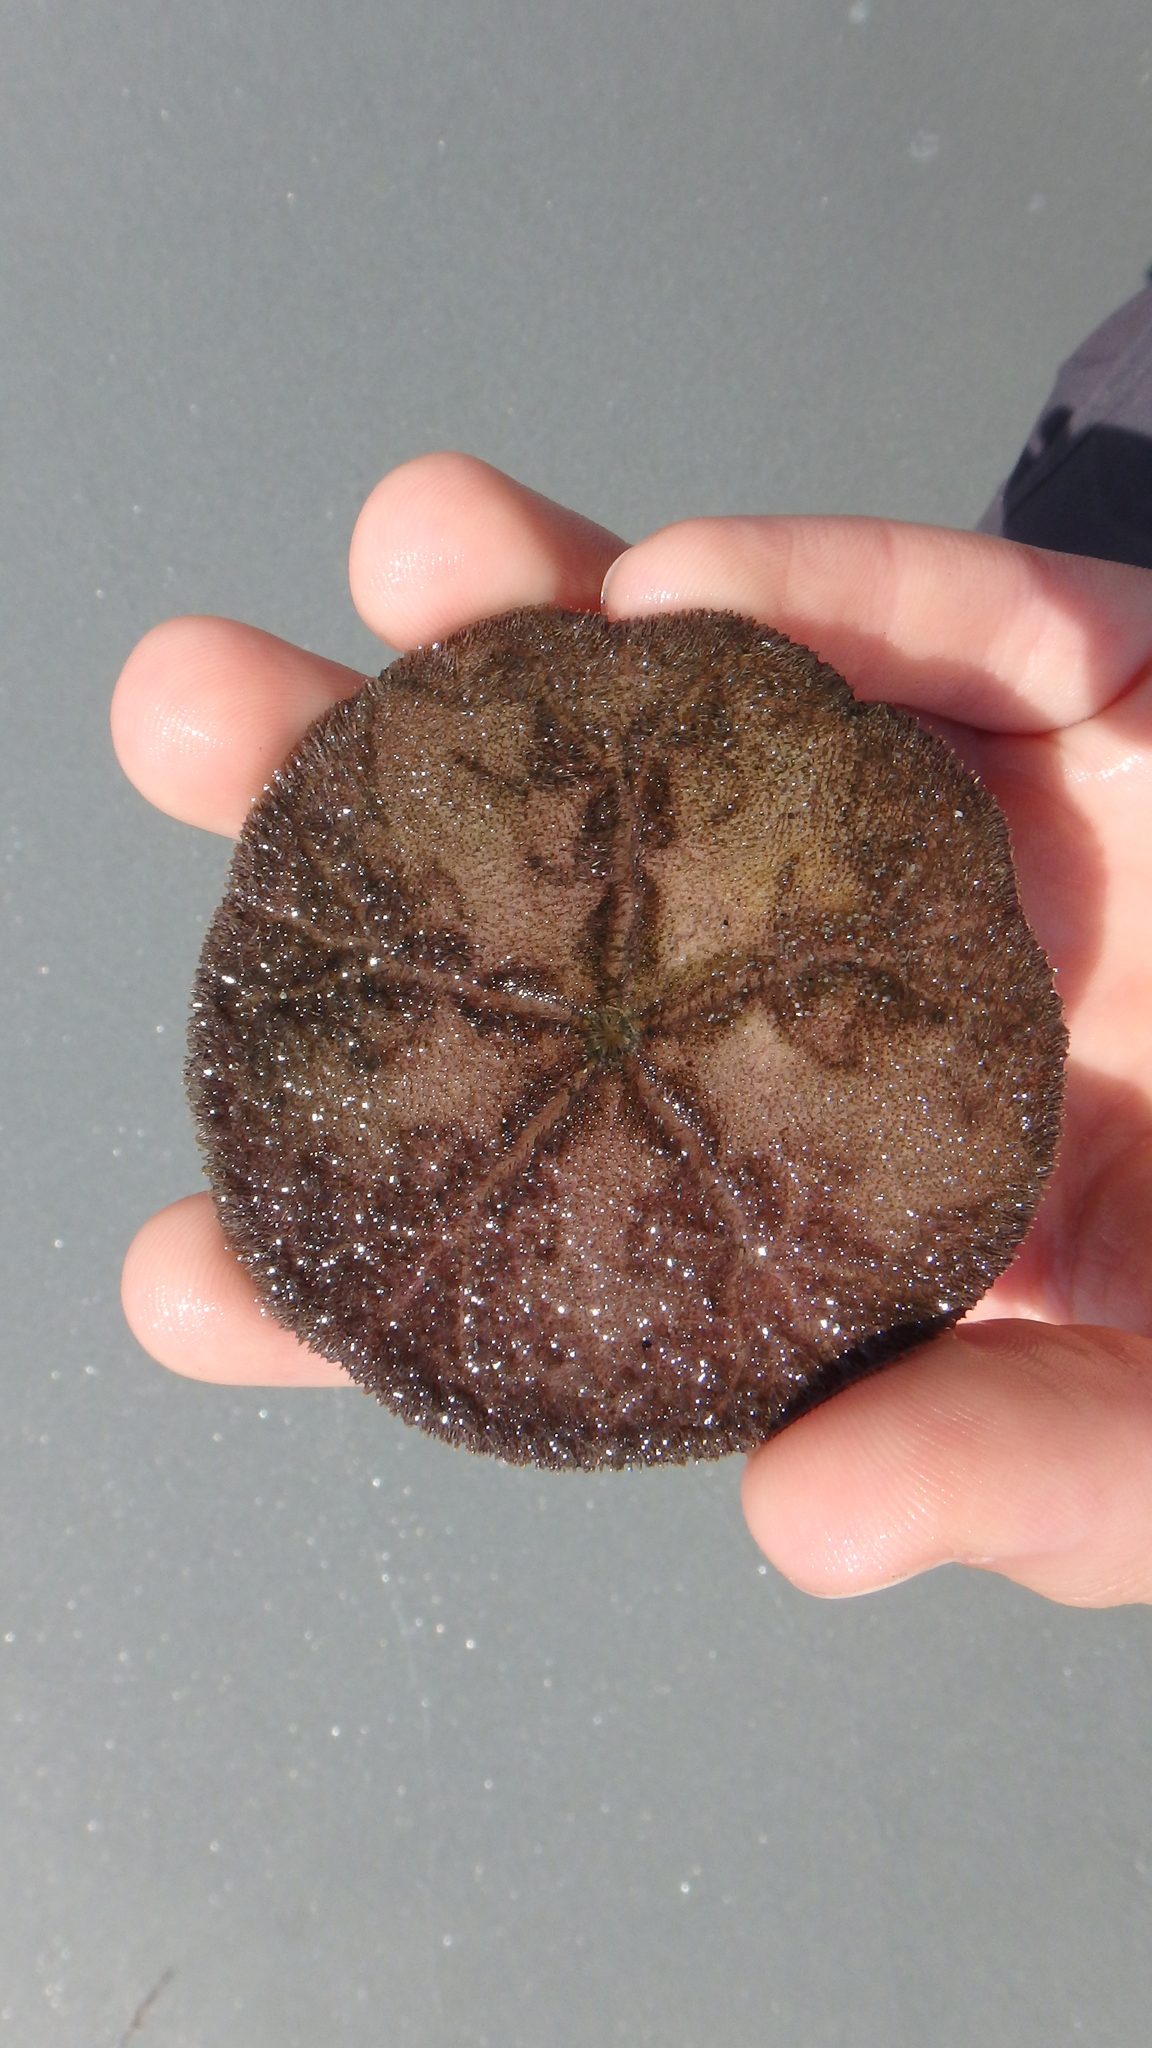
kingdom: Animalia
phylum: Echinodermata
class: Echinoidea
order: Echinolampadacea
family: Echinarachniidae
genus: Echinarachnius
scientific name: Echinarachnius parma
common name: Common sand dollar
